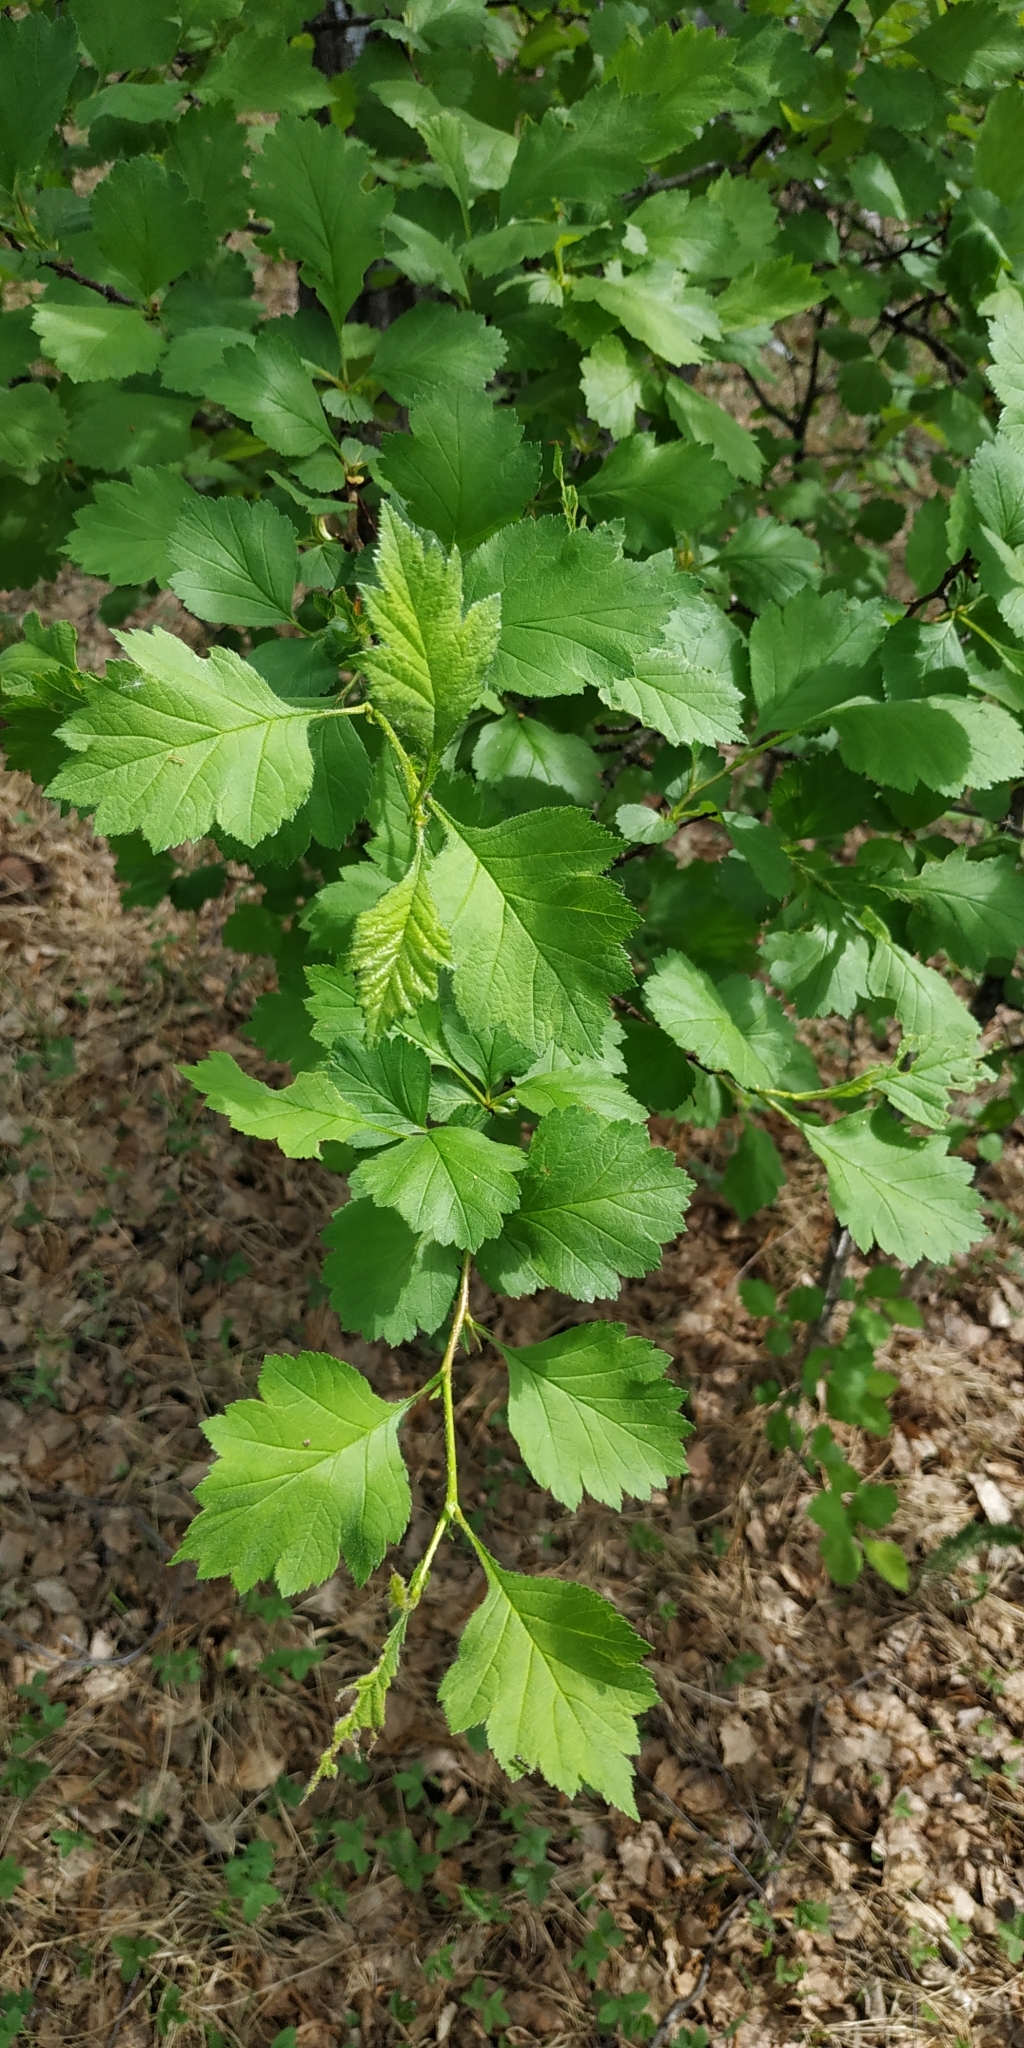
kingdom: Plantae
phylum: Tracheophyta
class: Magnoliopsida
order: Rosales
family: Rosaceae
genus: Crataegus
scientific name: Crataegus sanguinea
